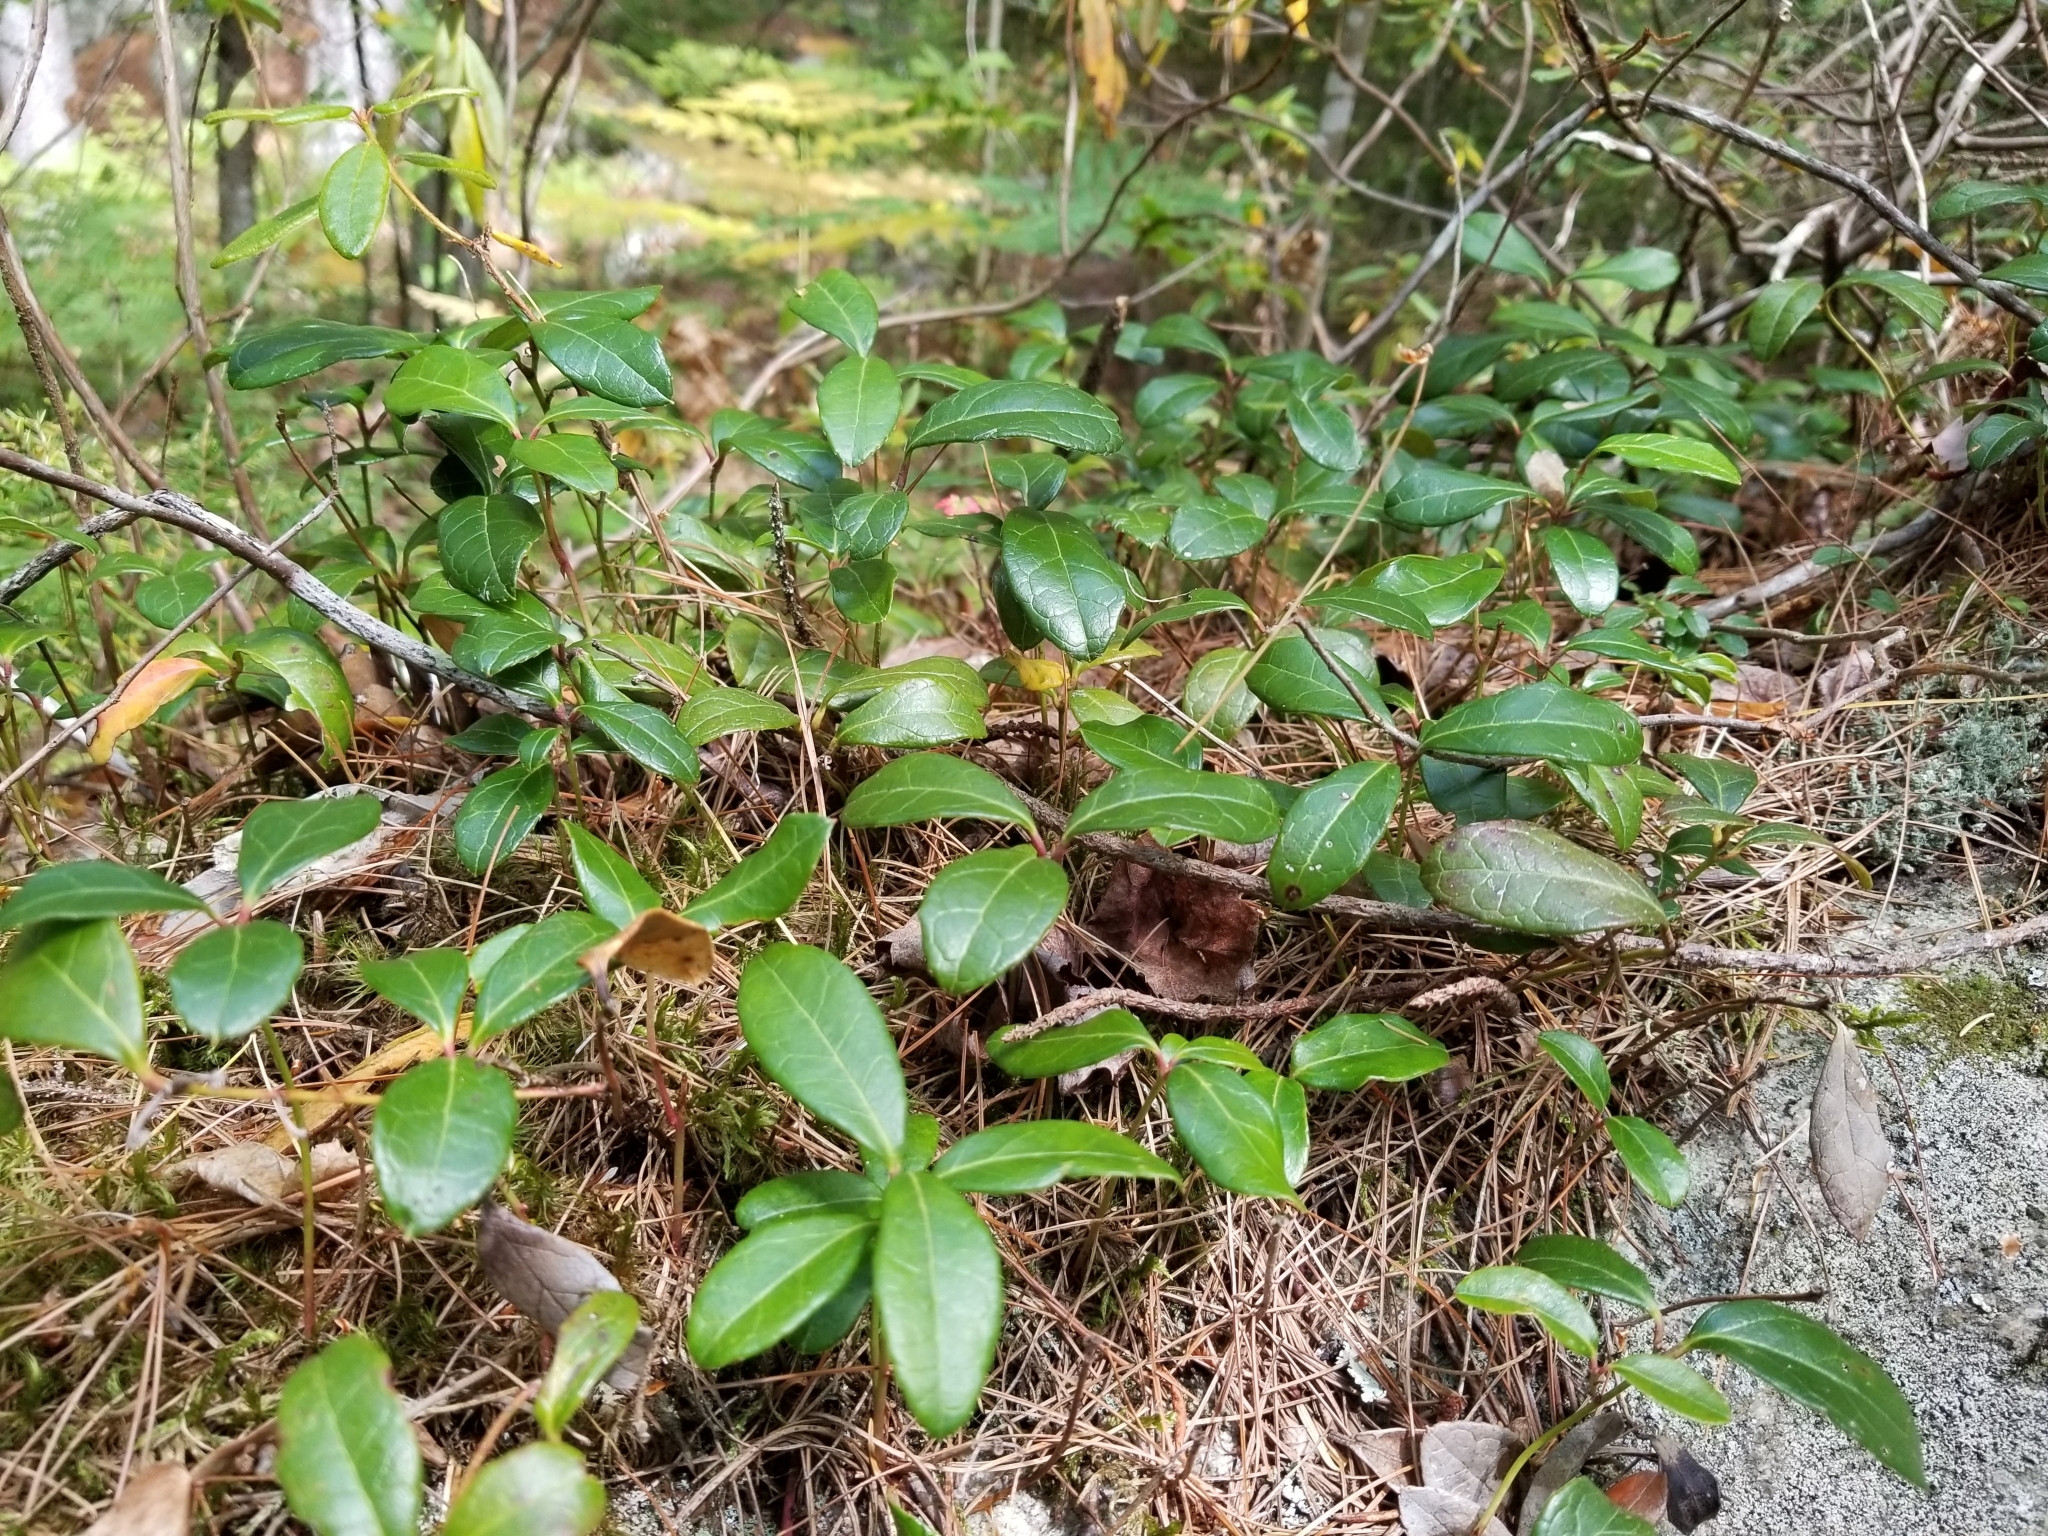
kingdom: Plantae
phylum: Tracheophyta
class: Magnoliopsida
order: Ericales
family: Ericaceae
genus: Gaultheria
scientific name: Gaultheria procumbens
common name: Checkerberry
